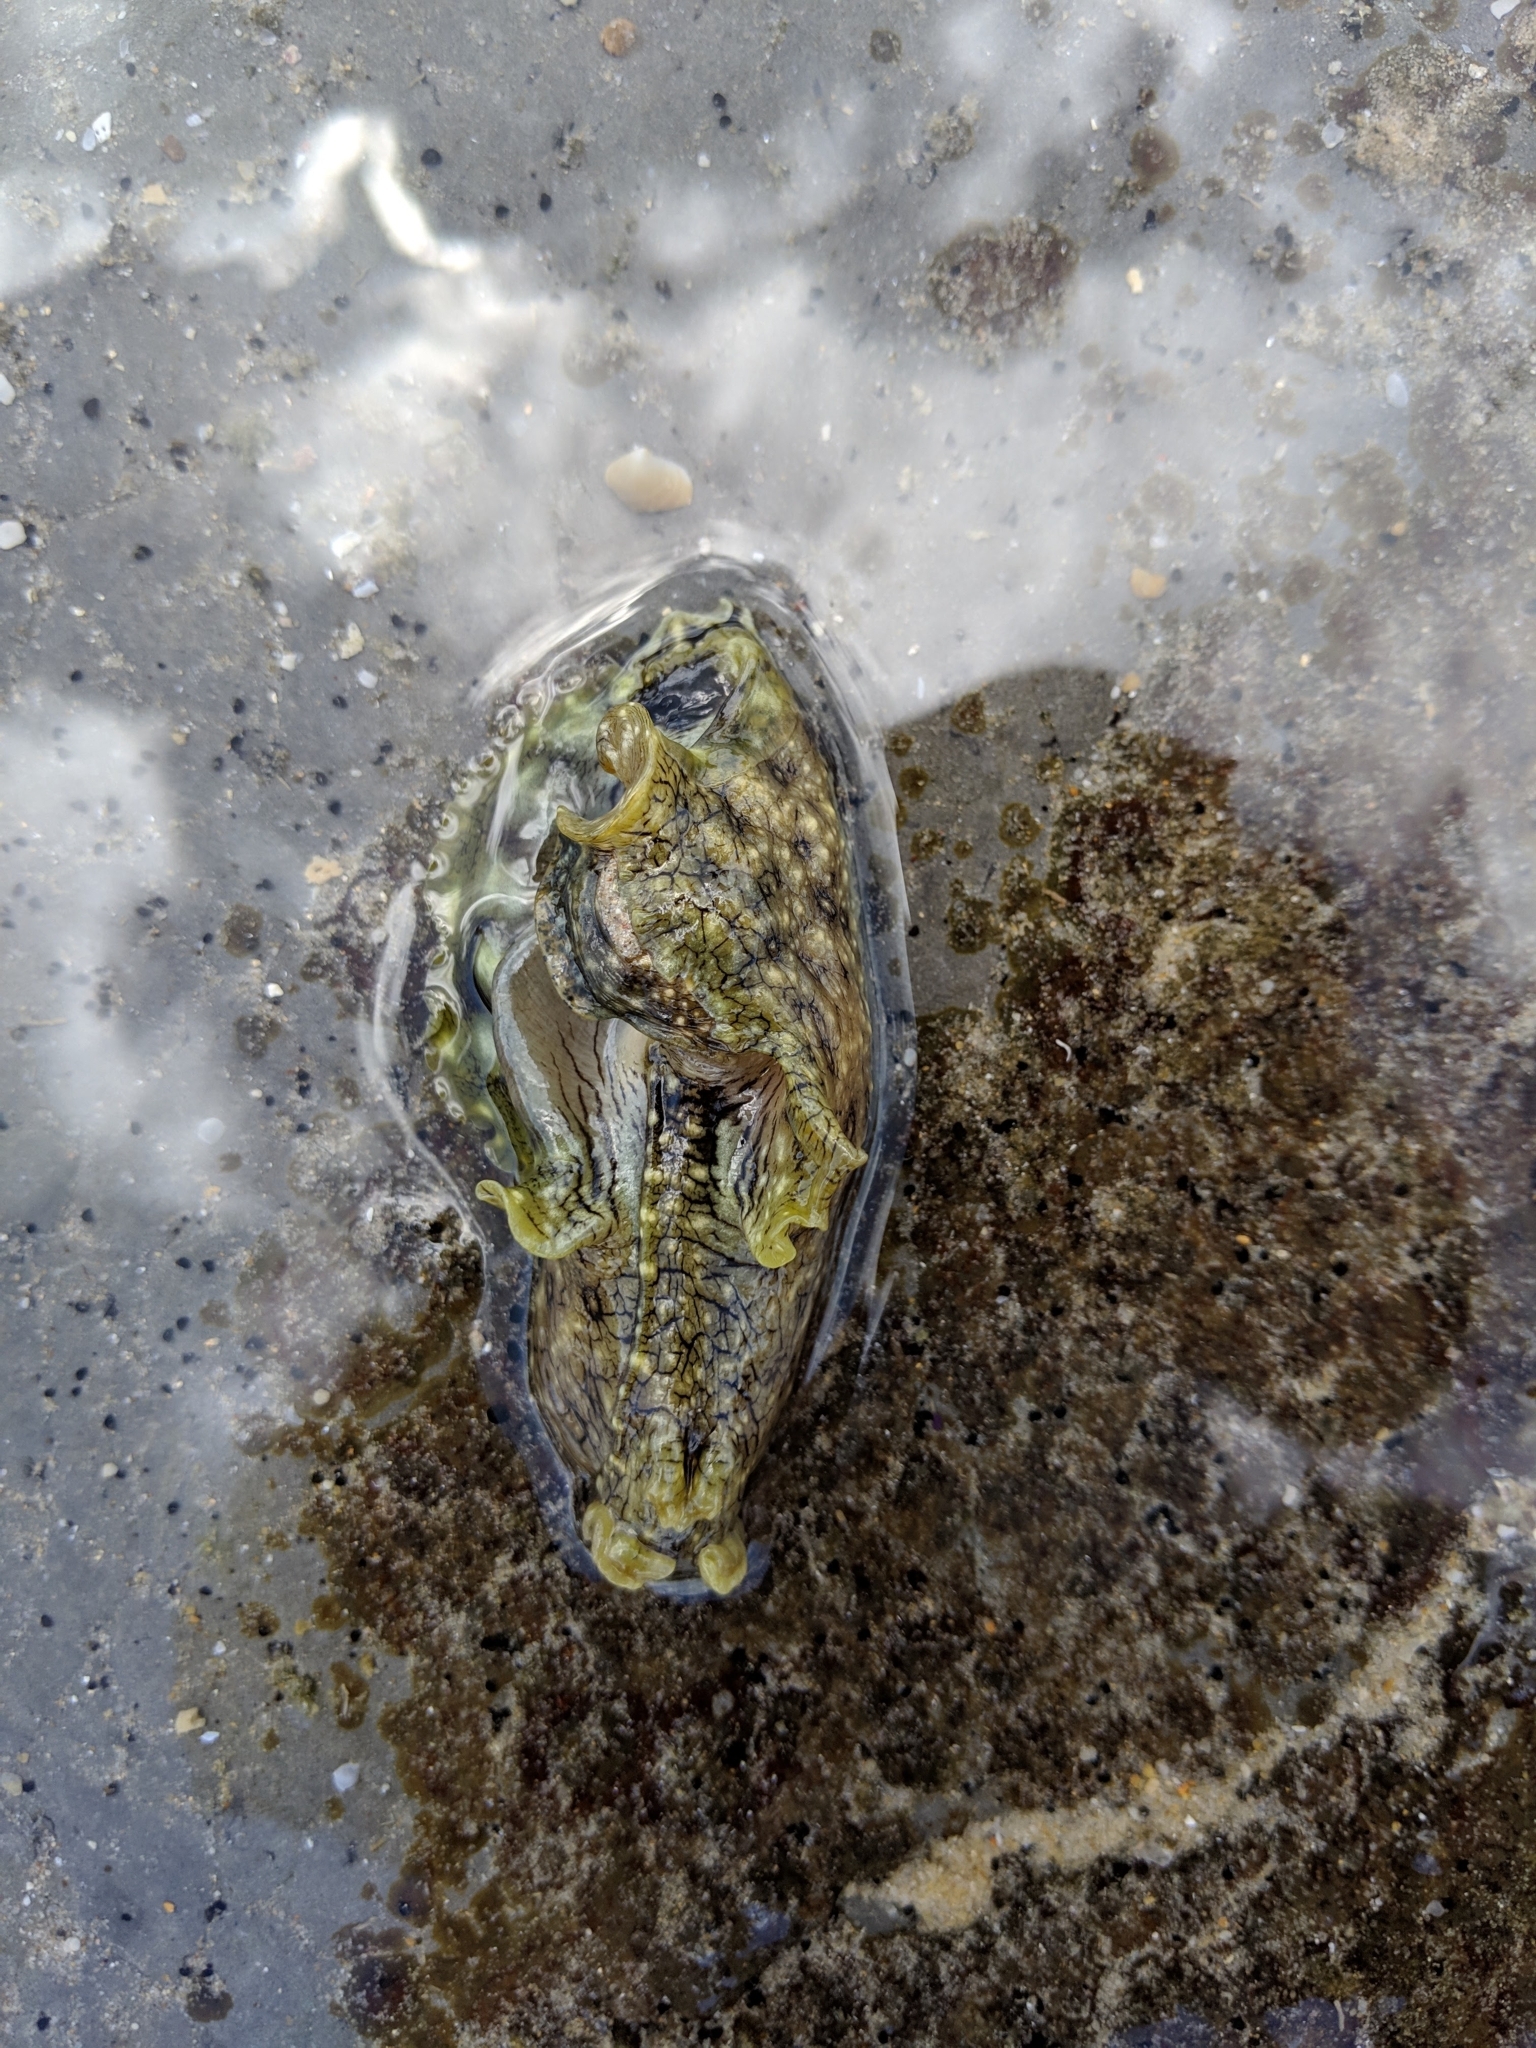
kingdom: Animalia
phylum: Mollusca
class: Gastropoda
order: Aplysiida
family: Aplysiidae
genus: Aplysia
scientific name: Aplysia argus
